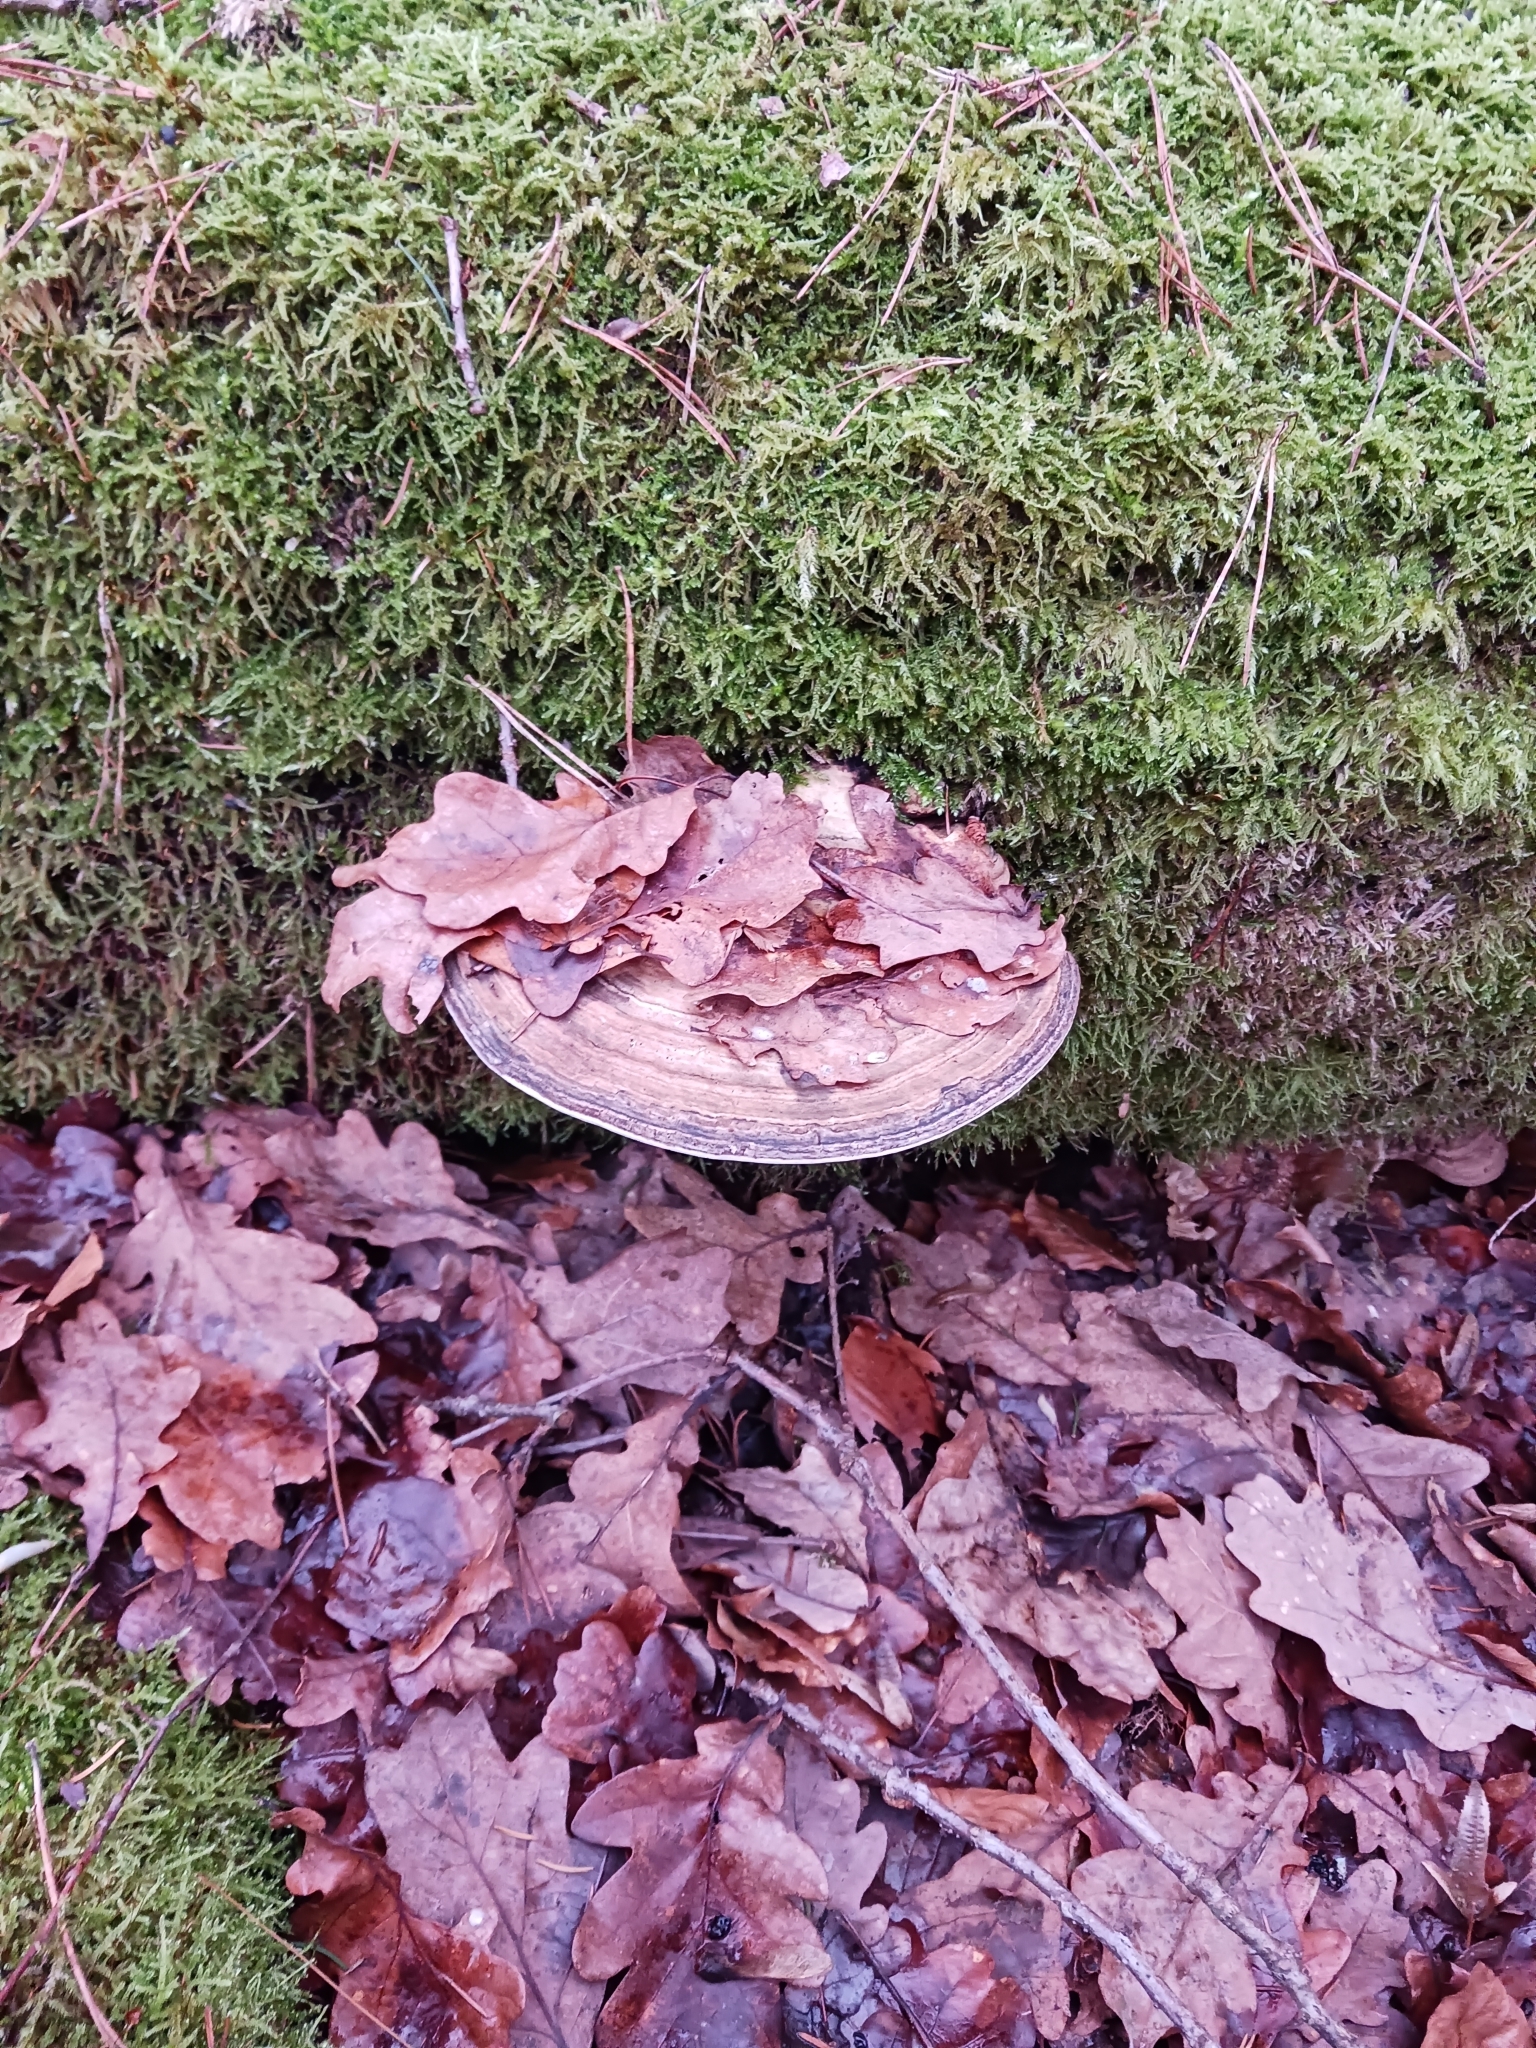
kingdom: Fungi
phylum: Basidiomycota
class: Agaricomycetes
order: Polyporales
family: Polyporaceae
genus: Ganoderma
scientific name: Ganoderma applanatum
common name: Artist's bracket
